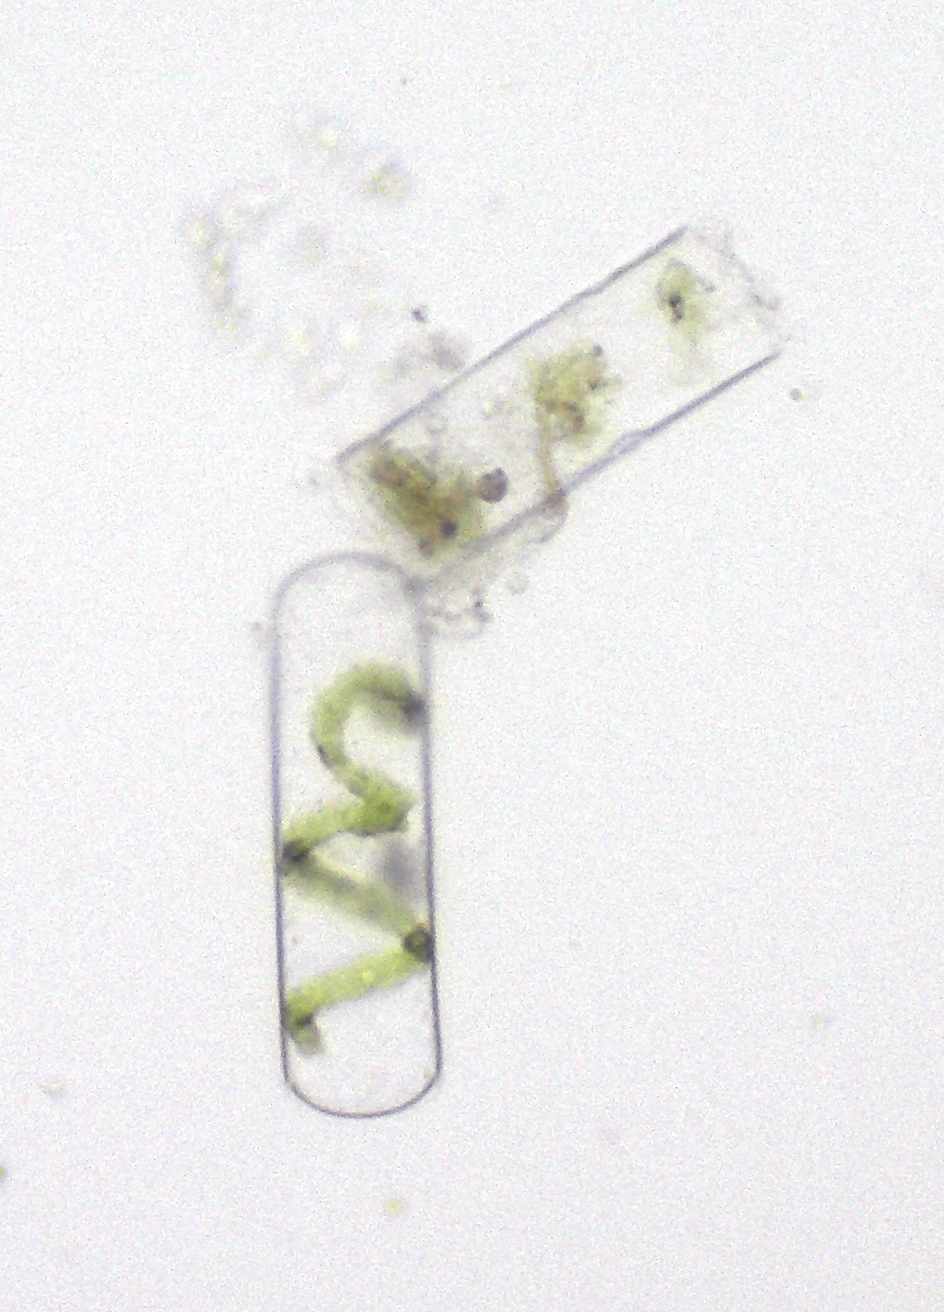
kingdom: Plantae
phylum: Charophyta
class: Zygnematophyceae
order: Zygnematales
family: Zygnemataceae
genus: Spirogyra
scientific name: Spirogyra
